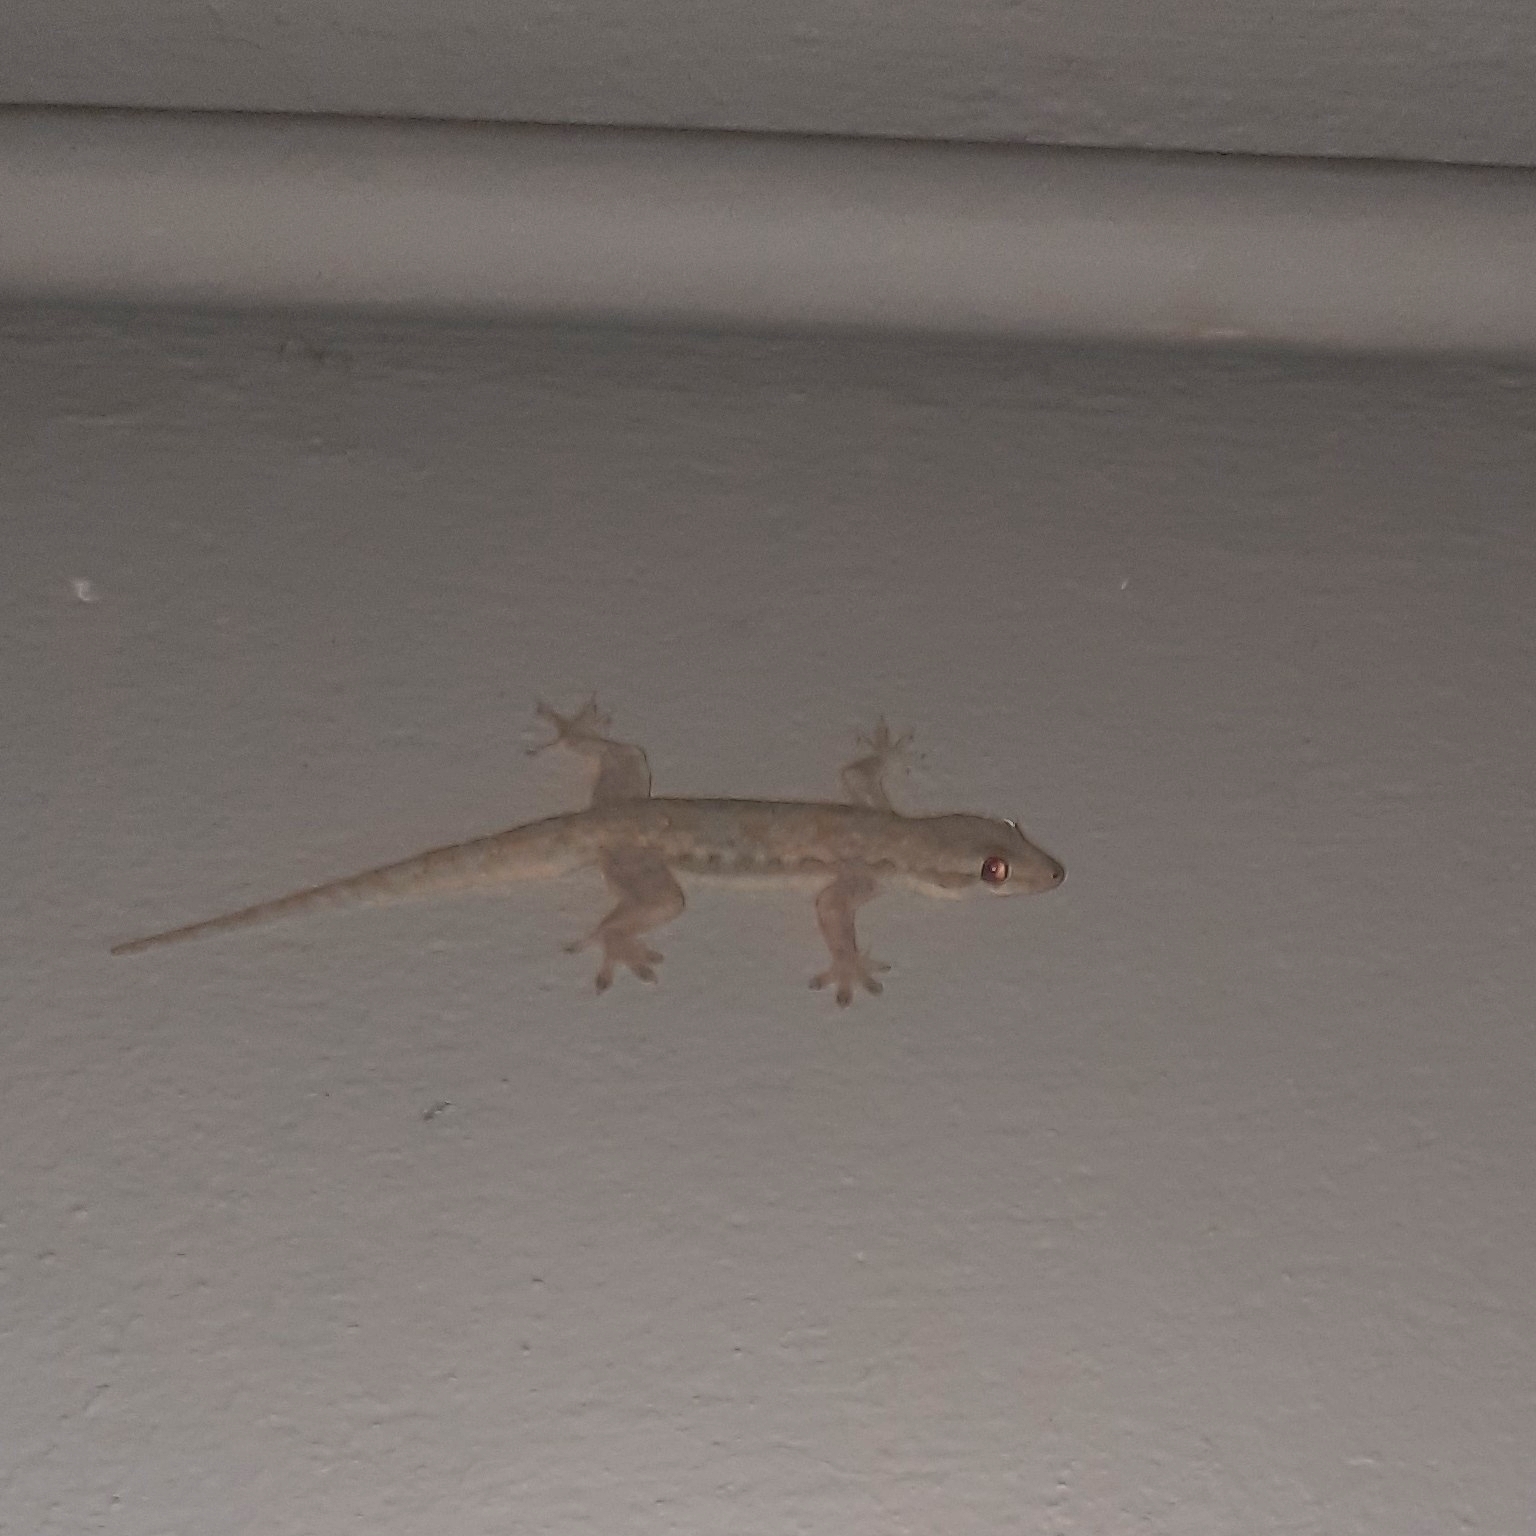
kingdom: Animalia
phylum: Chordata
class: Squamata
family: Gekkonidae
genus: Hemidactylus
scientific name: Hemidactylus platyurus
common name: Flat-tailed house gecko
